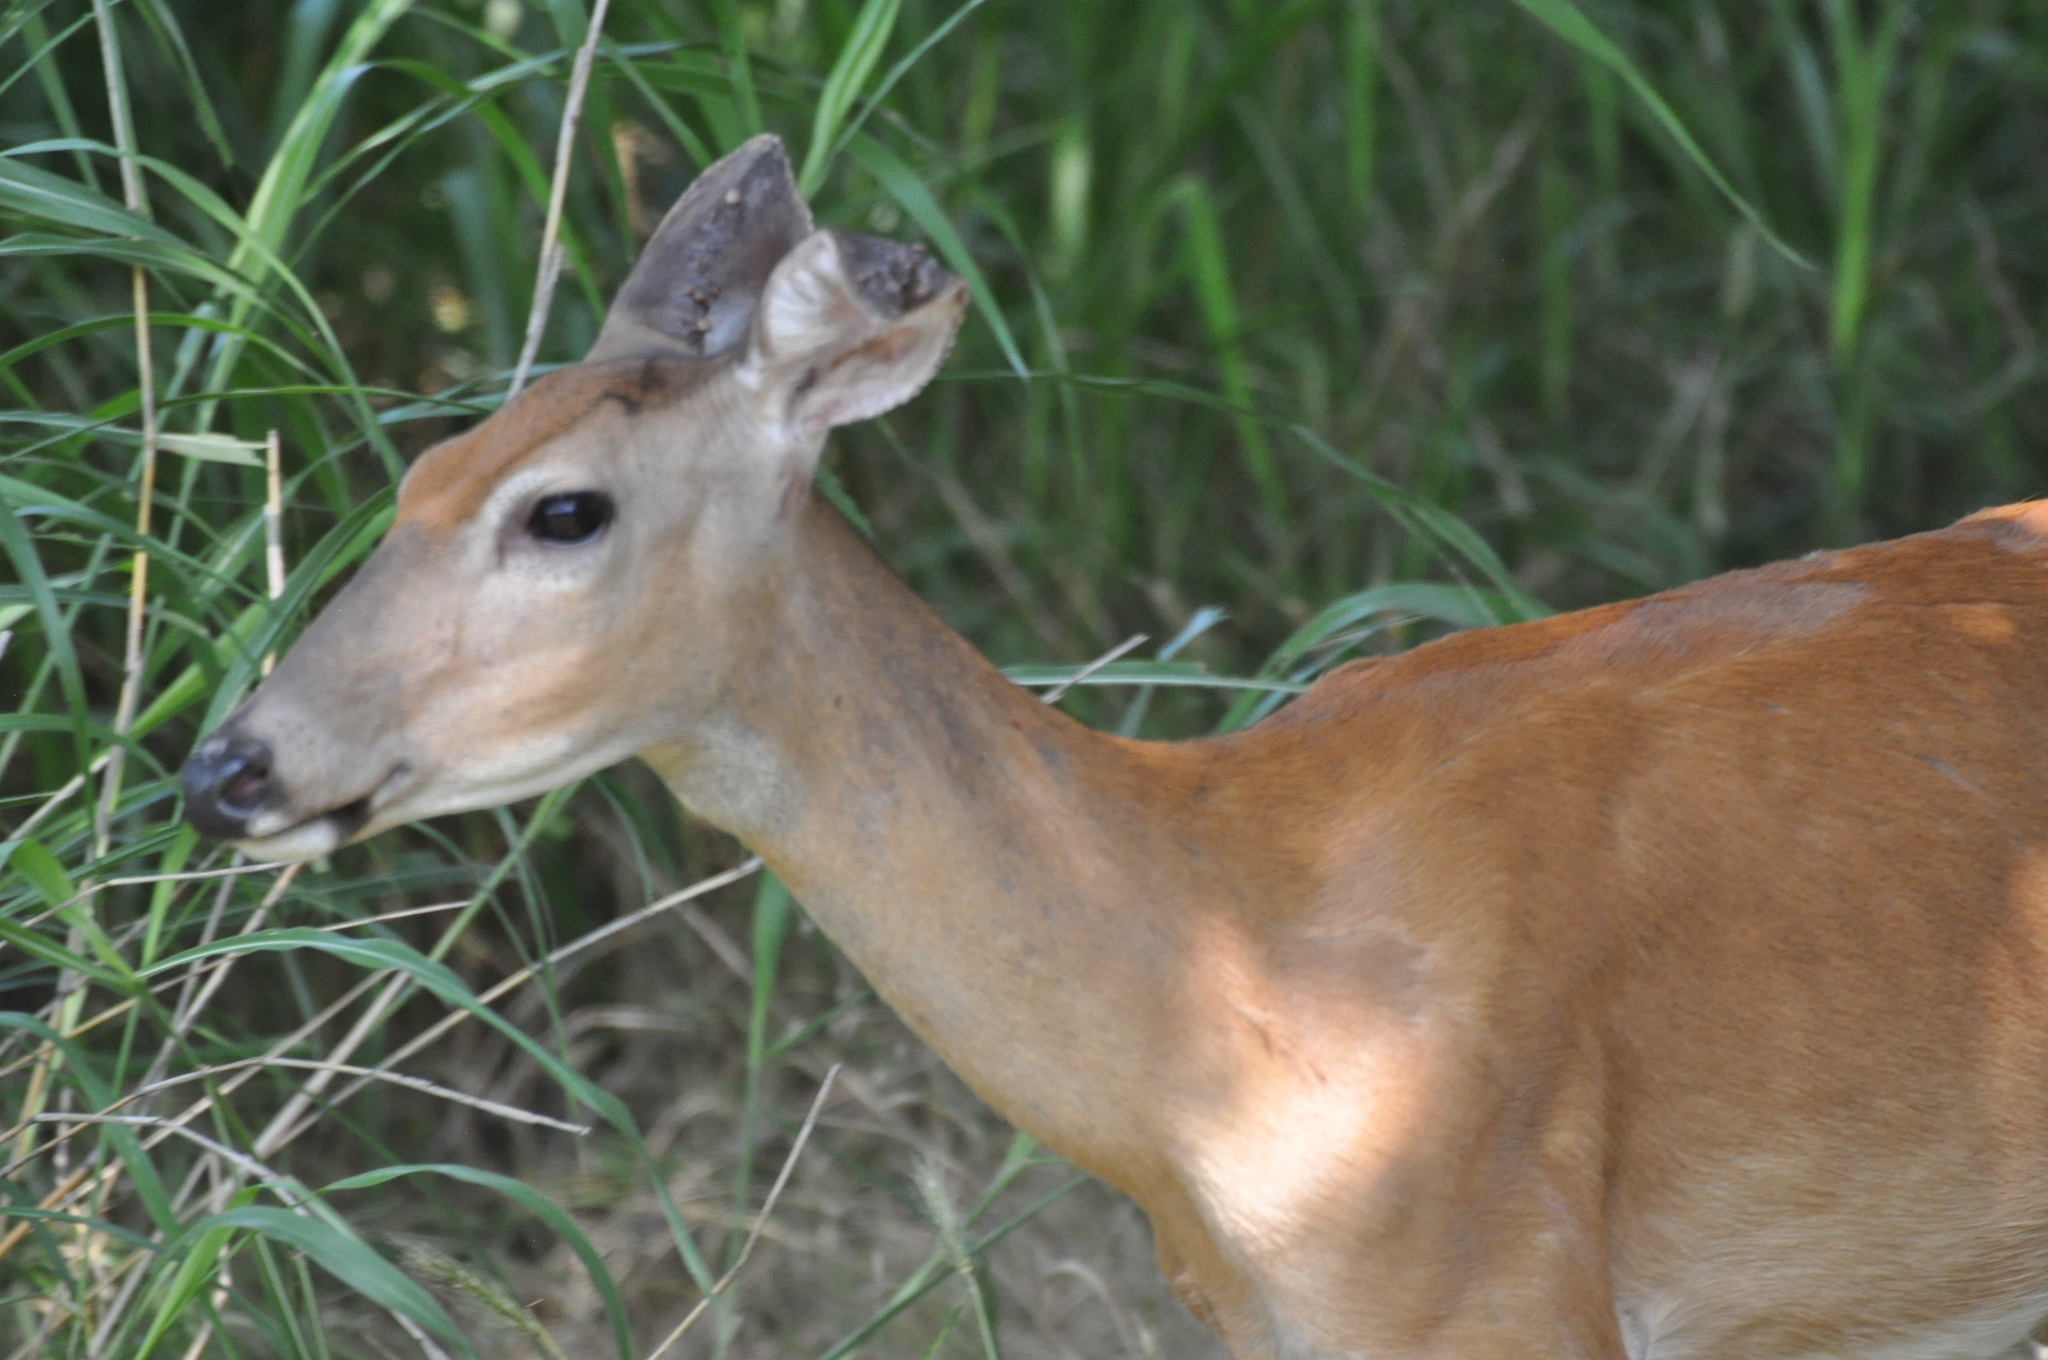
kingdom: Animalia
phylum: Chordata
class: Mammalia
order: Artiodactyla
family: Cervidae
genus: Odocoileus
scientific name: Odocoileus virginianus
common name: White-tailed deer
